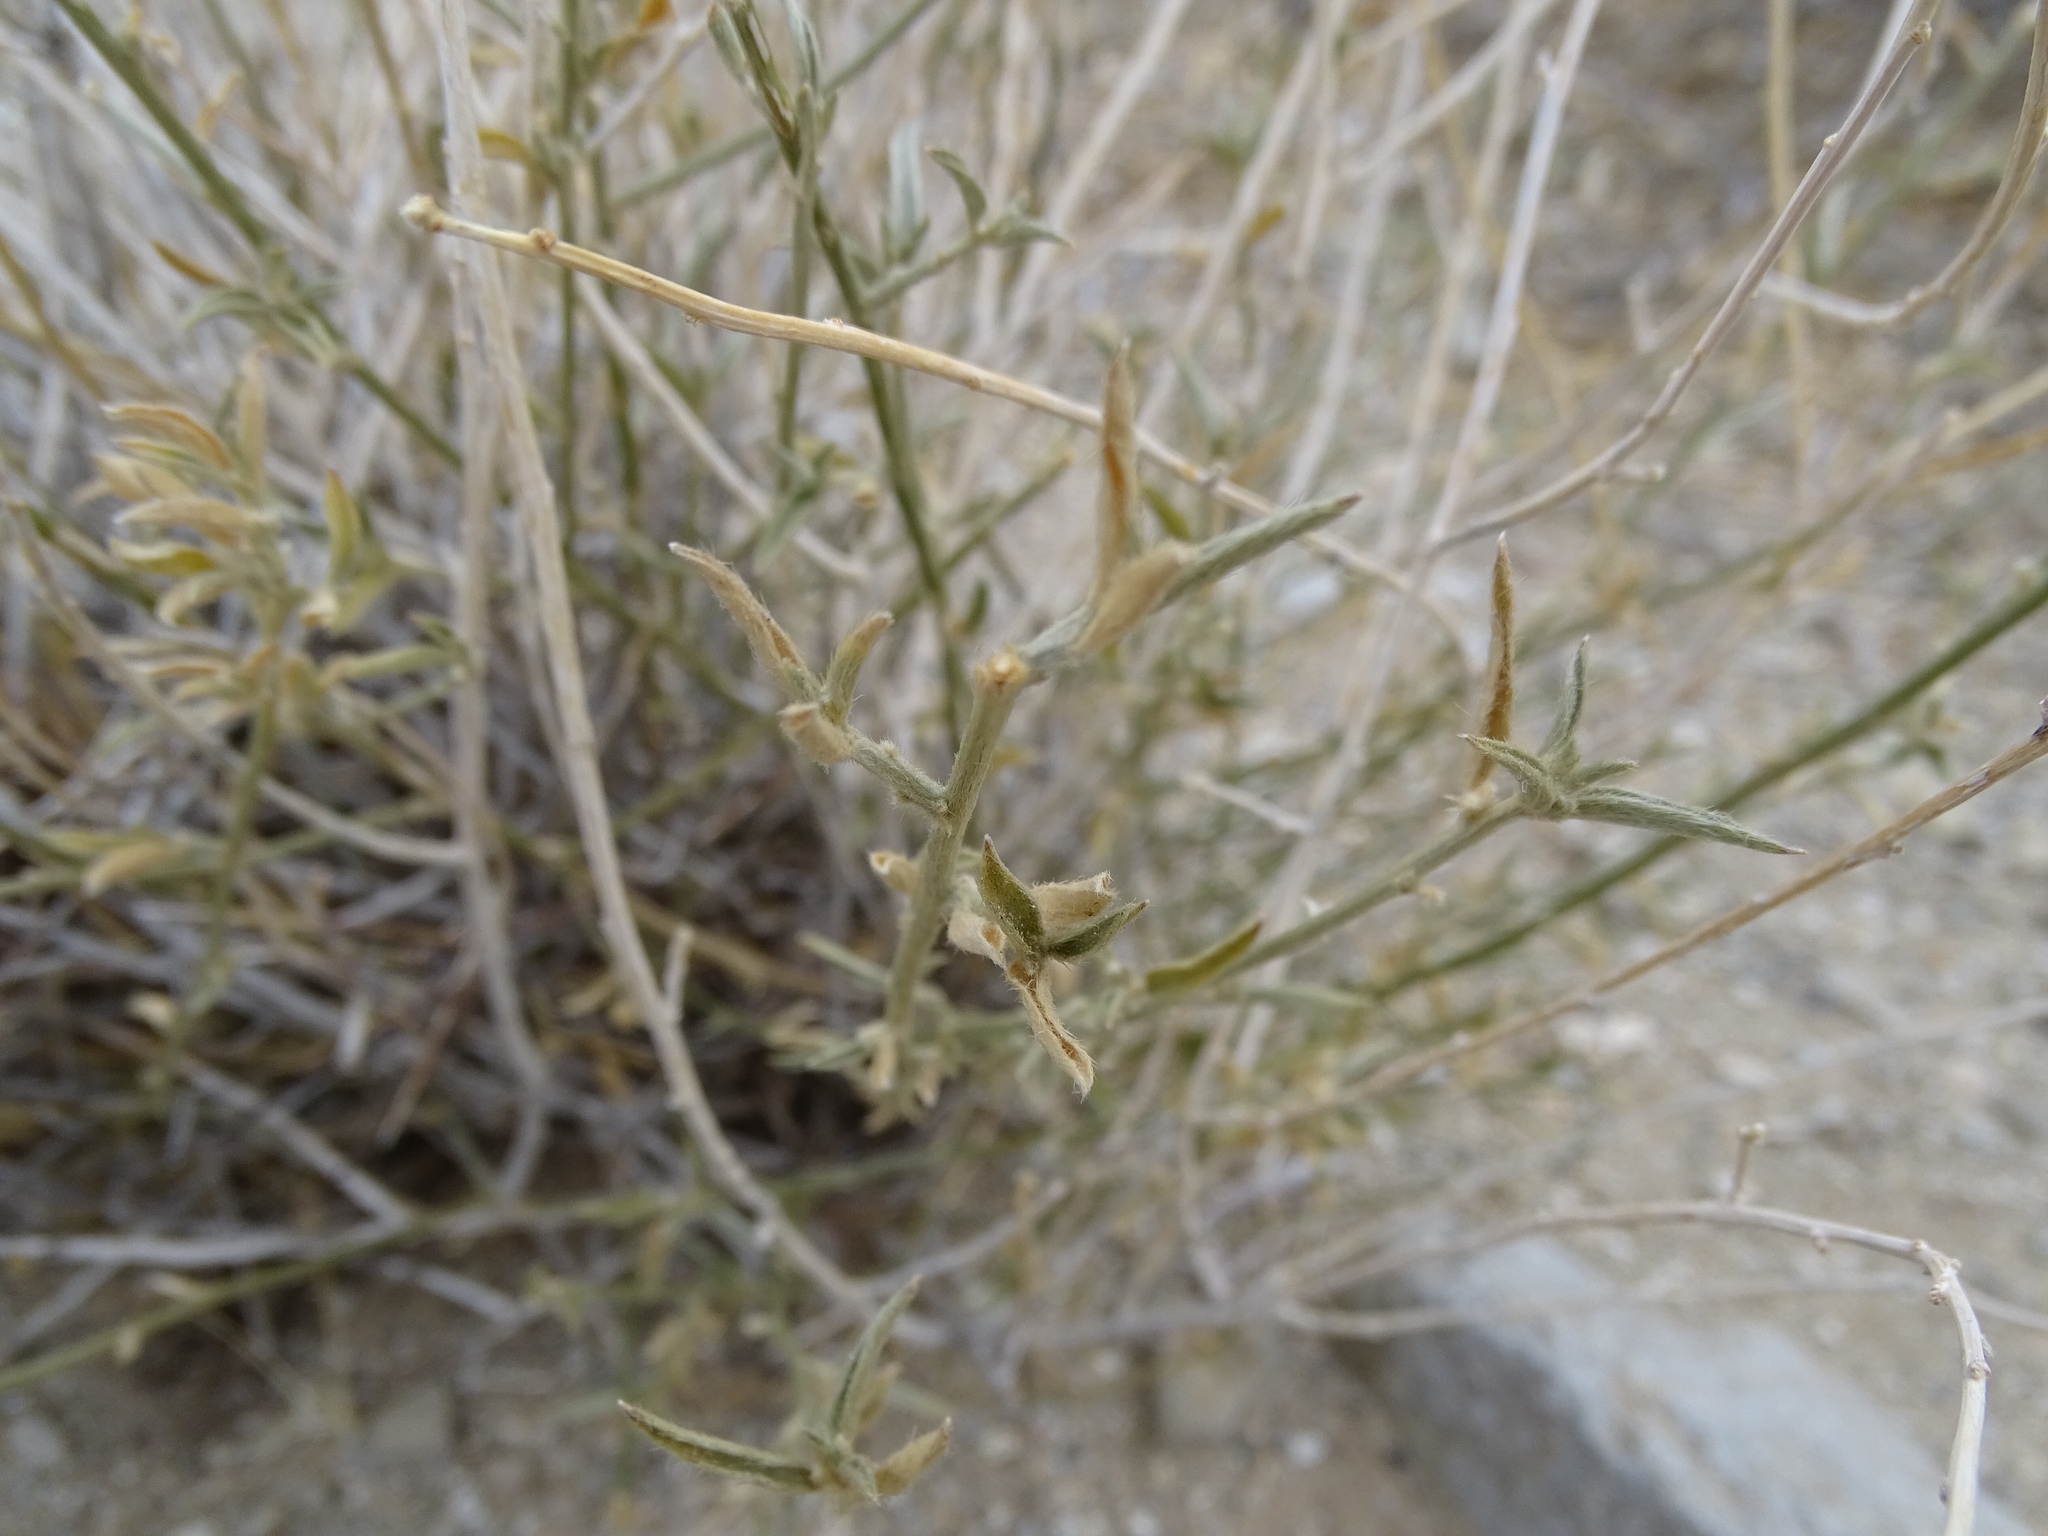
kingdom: Plantae
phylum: Tracheophyta
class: Magnoliopsida
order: Malpighiales
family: Euphorbiaceae
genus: Ditaxis
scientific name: Ditaxis lanceolata
